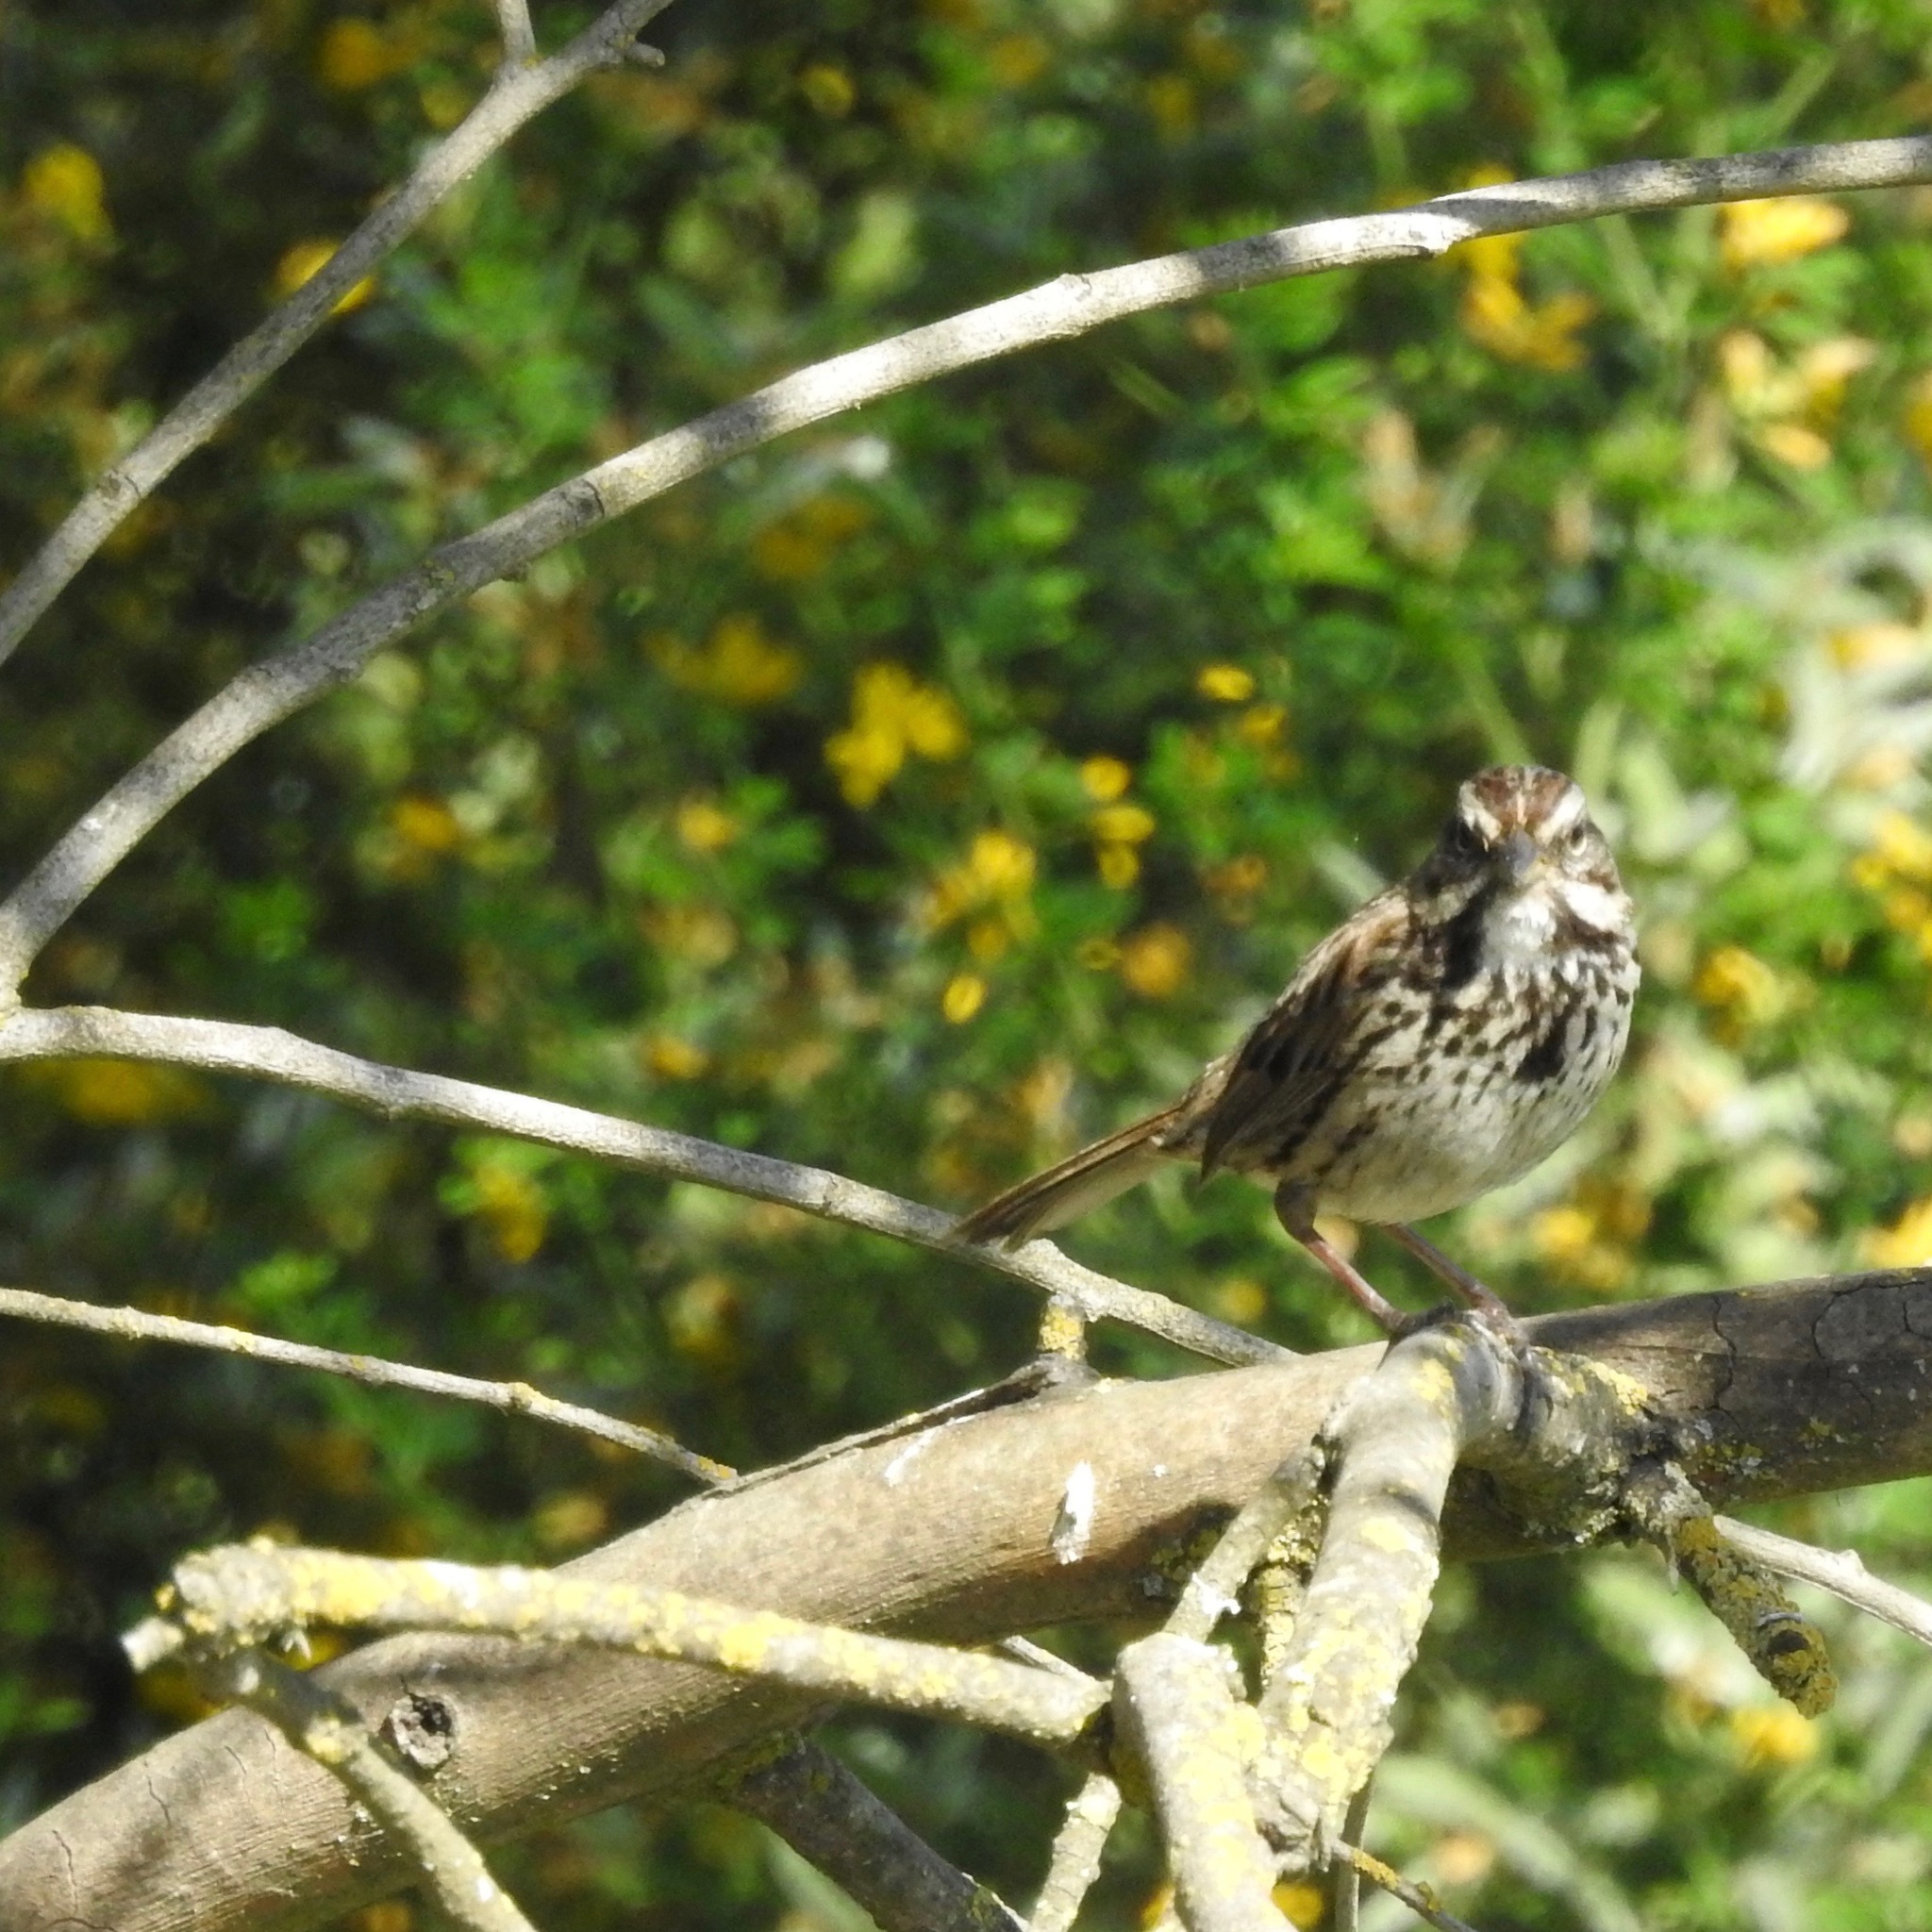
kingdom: Animalia
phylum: Chordata
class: Aves
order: Passeriformes
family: Passerellidae
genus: Melospiza
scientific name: Melospiza melodia
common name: Song sparrow
